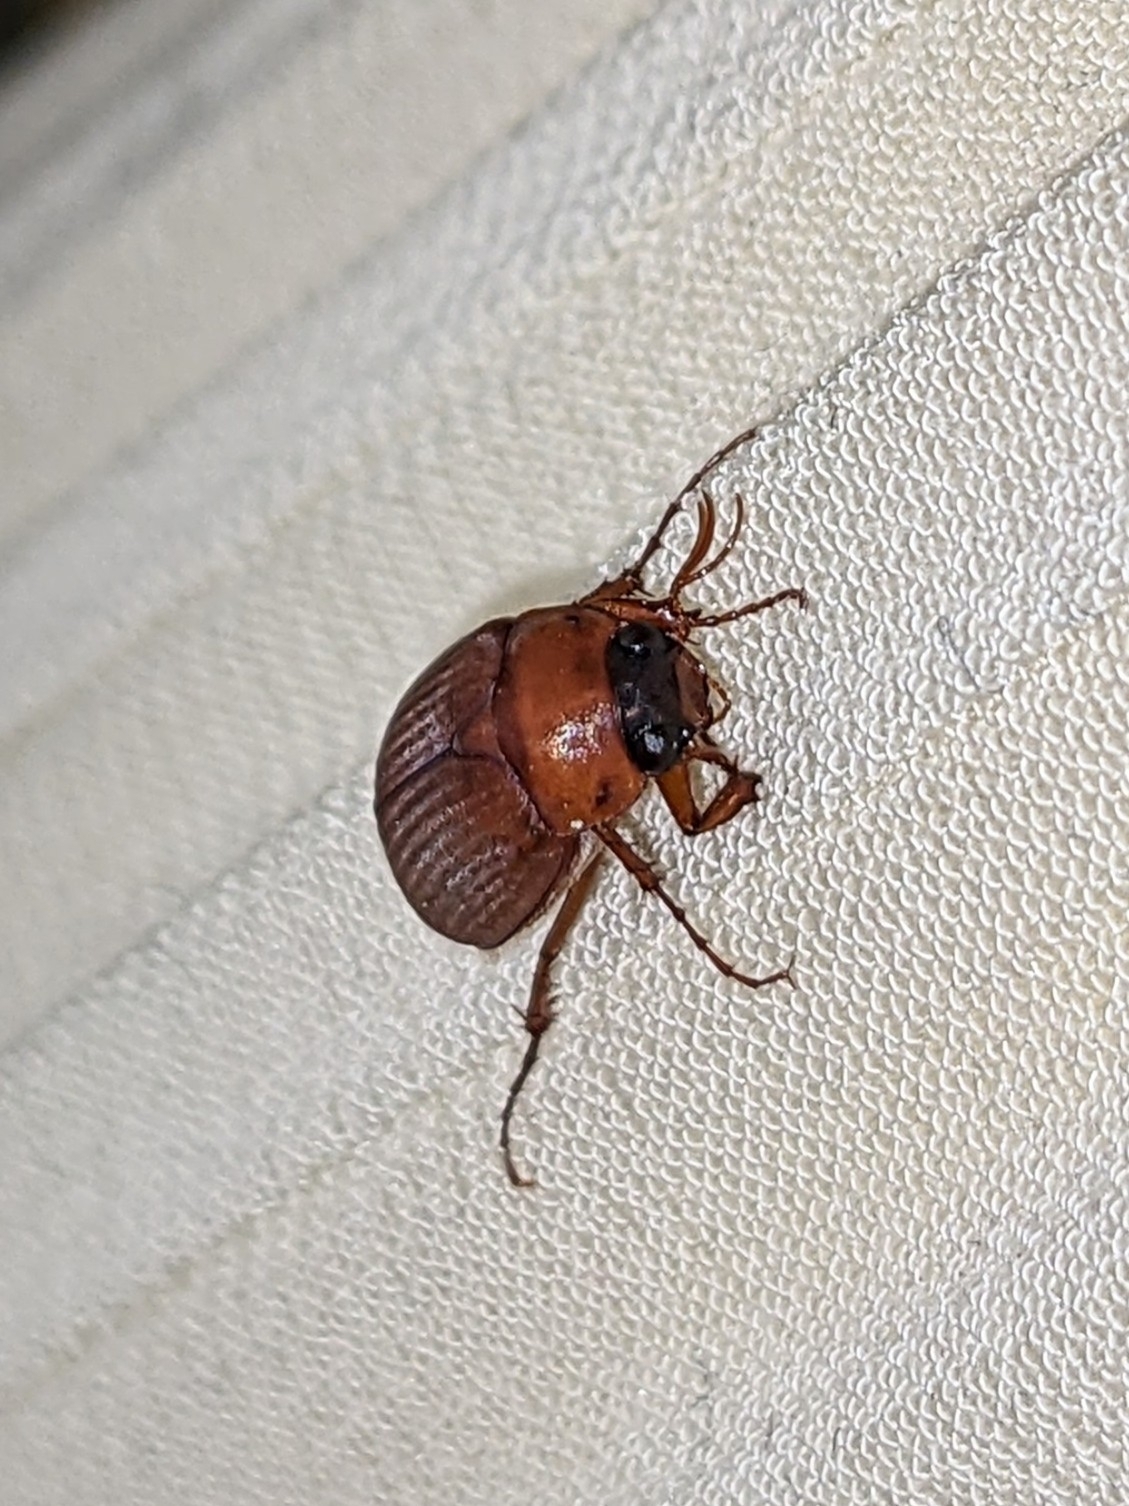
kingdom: Animalia
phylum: Arthropoda
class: Insecta
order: Coleoptera
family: Scarabaeidae
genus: Serica
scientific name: Serica brunnea
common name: Brown chafer
